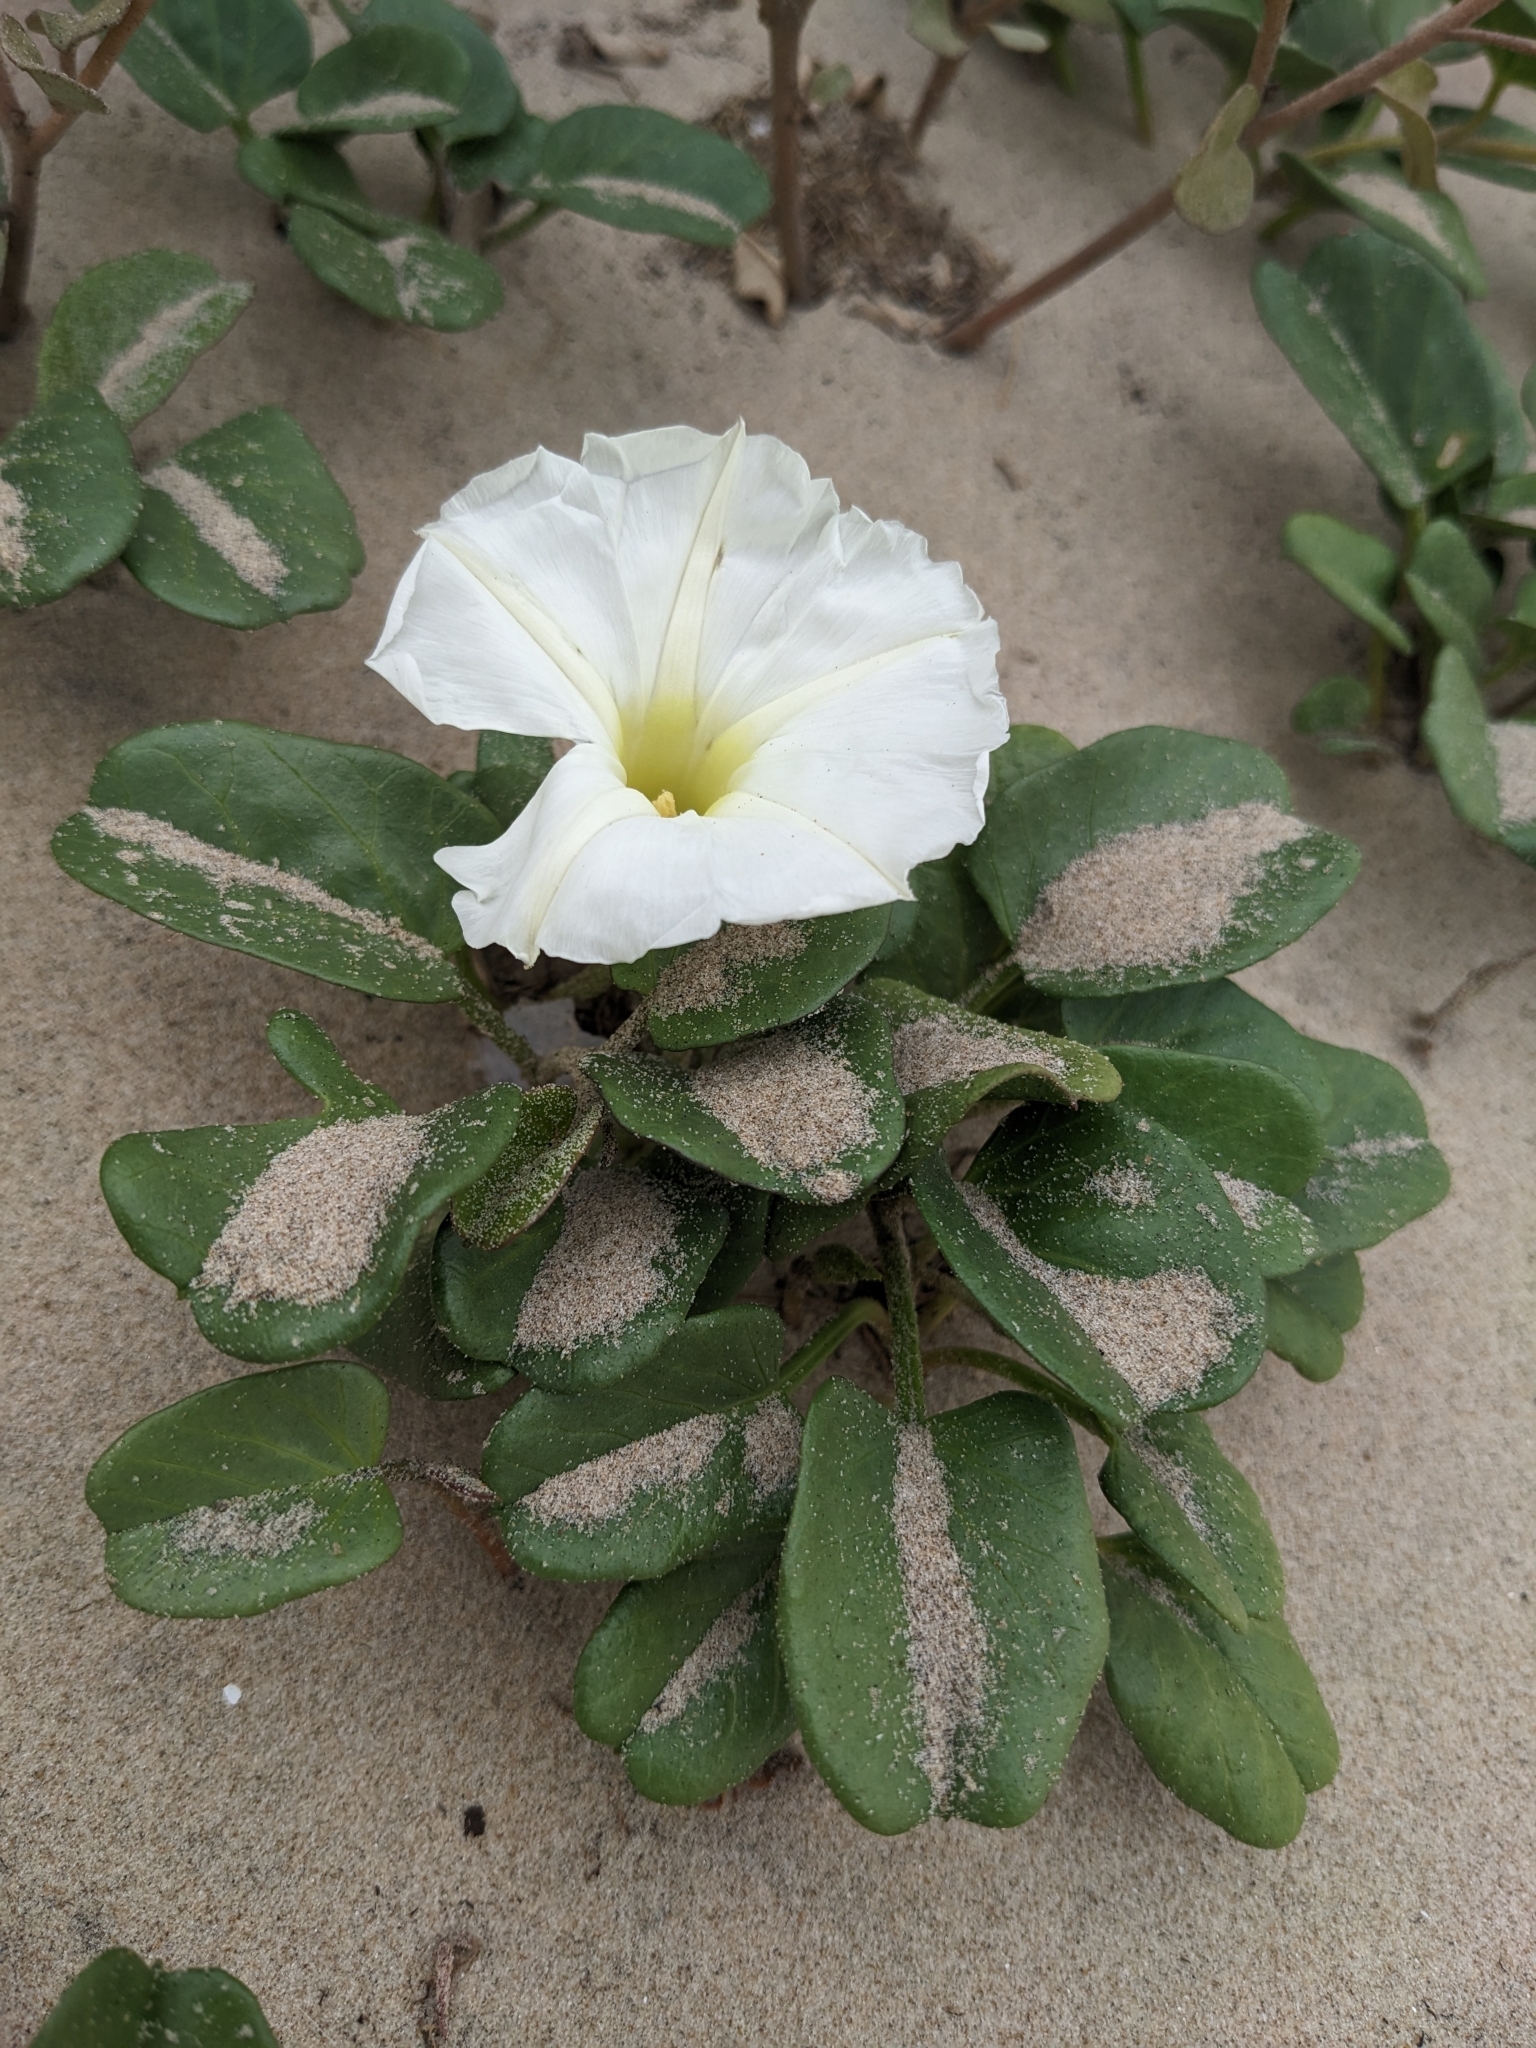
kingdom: Plantae
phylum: Tracheophyta
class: Magnoliopsida
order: Solanales
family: Convolvulaceae
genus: Ipomoea
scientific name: Ipomoea imperati
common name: Fiddle-leaf morning-glory
